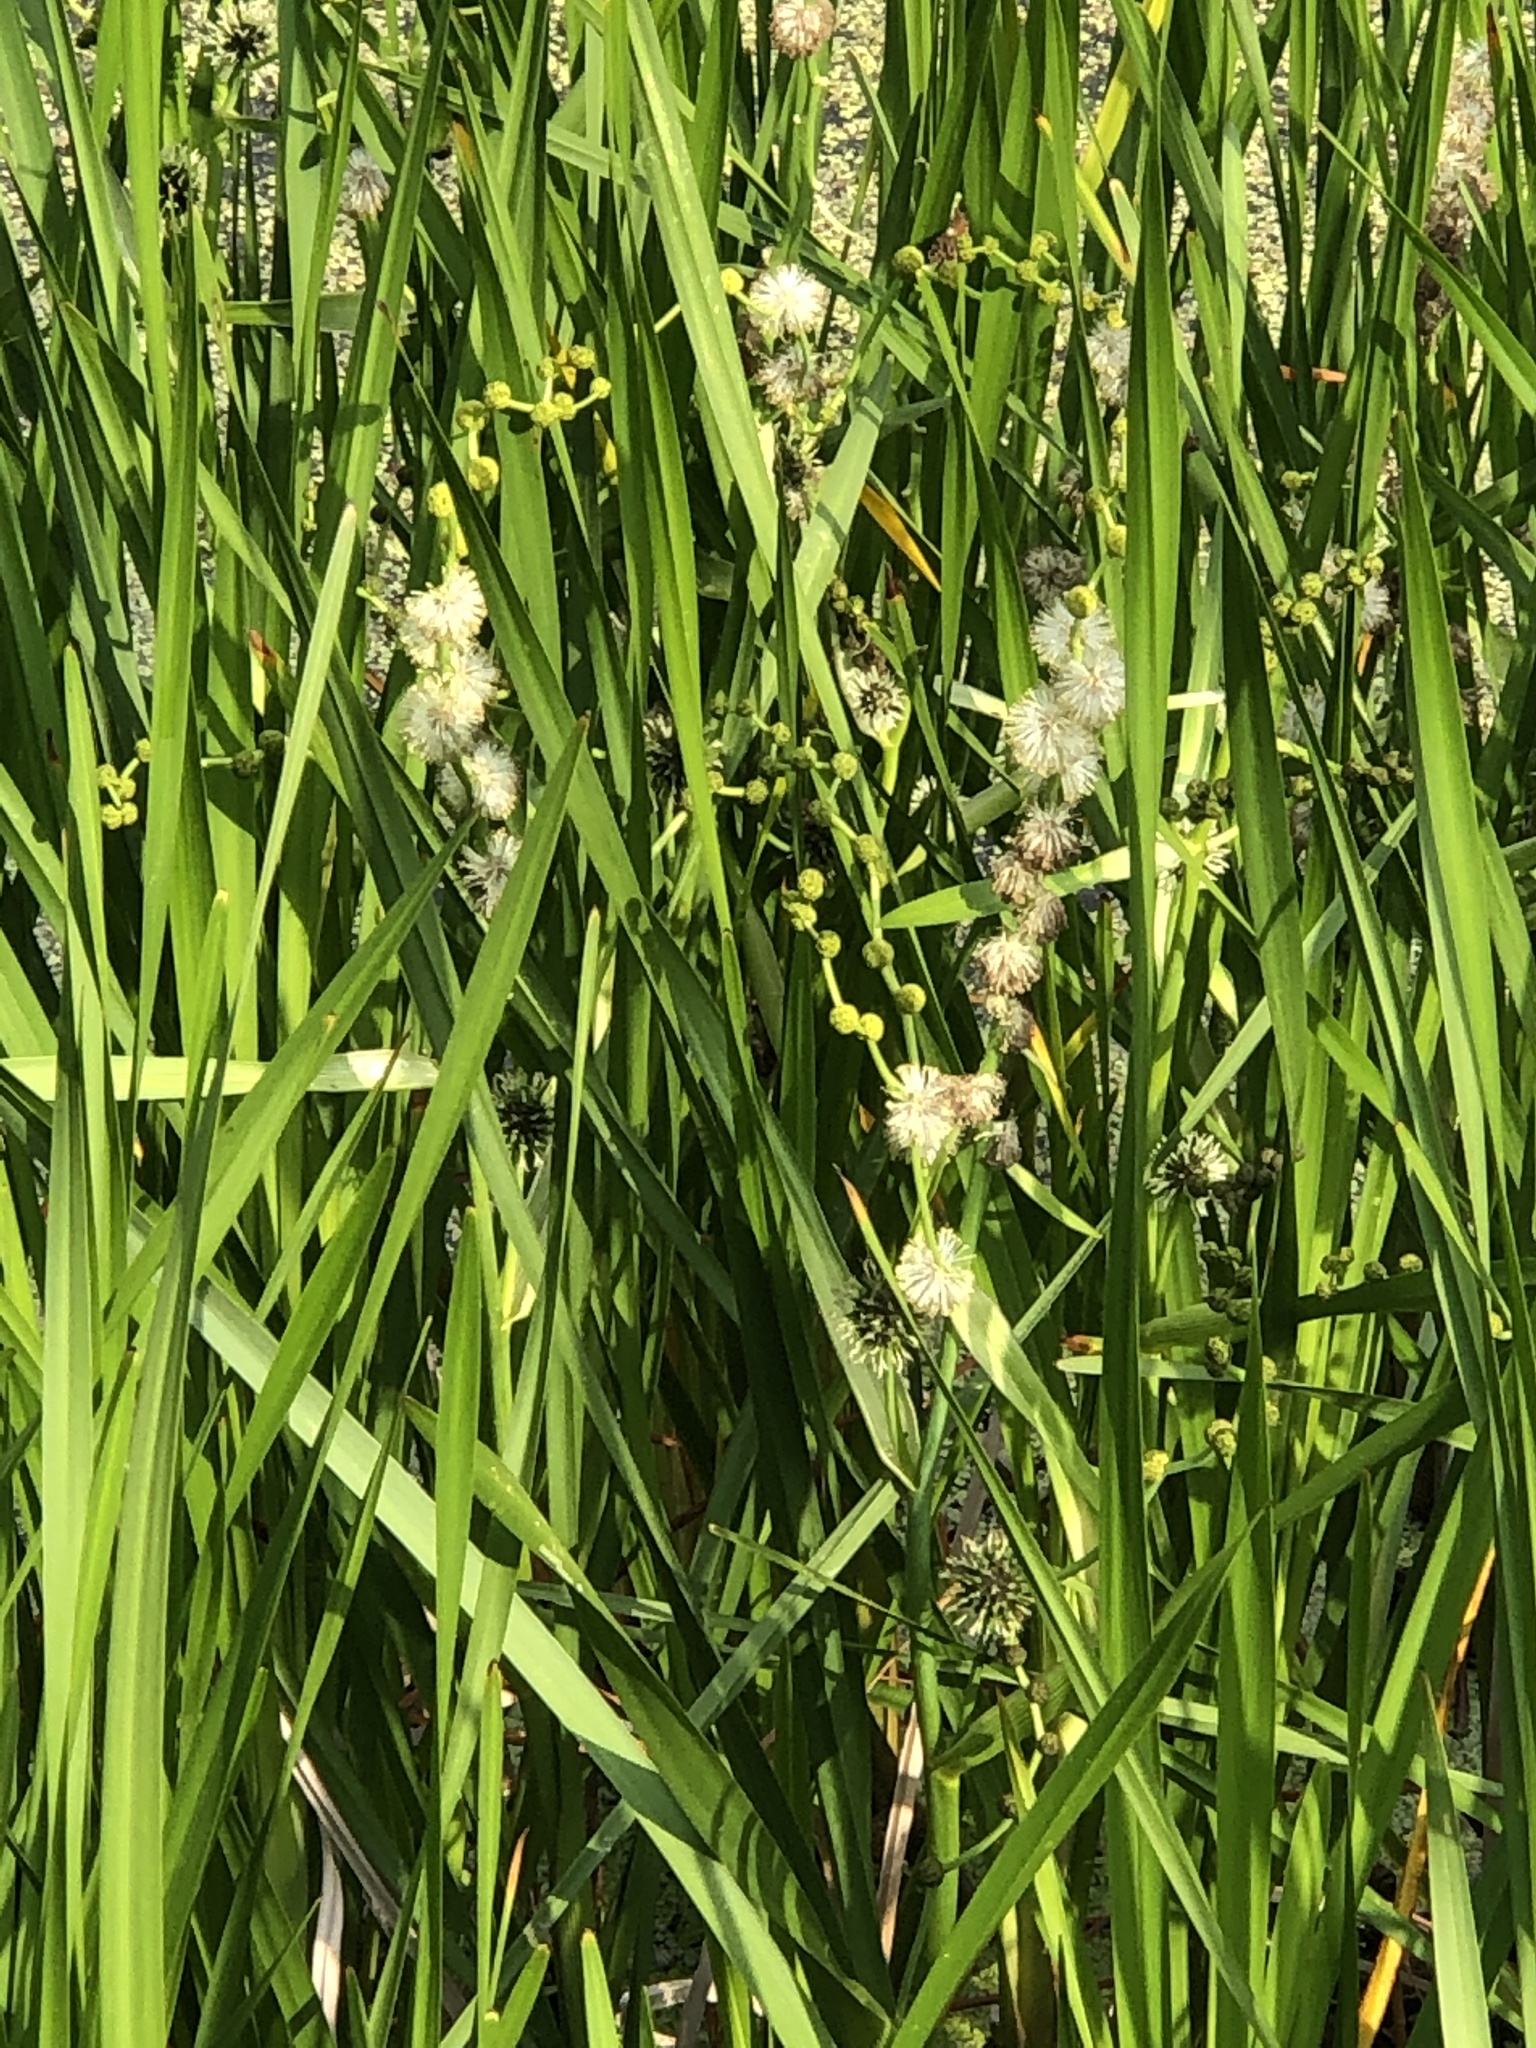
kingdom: Plantae
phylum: Tracheophyta
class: Liliopsida
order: Poales
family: Typhaceae
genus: Sparganium
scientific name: Sparganium eurycarpum
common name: Broad-fruited burreed
